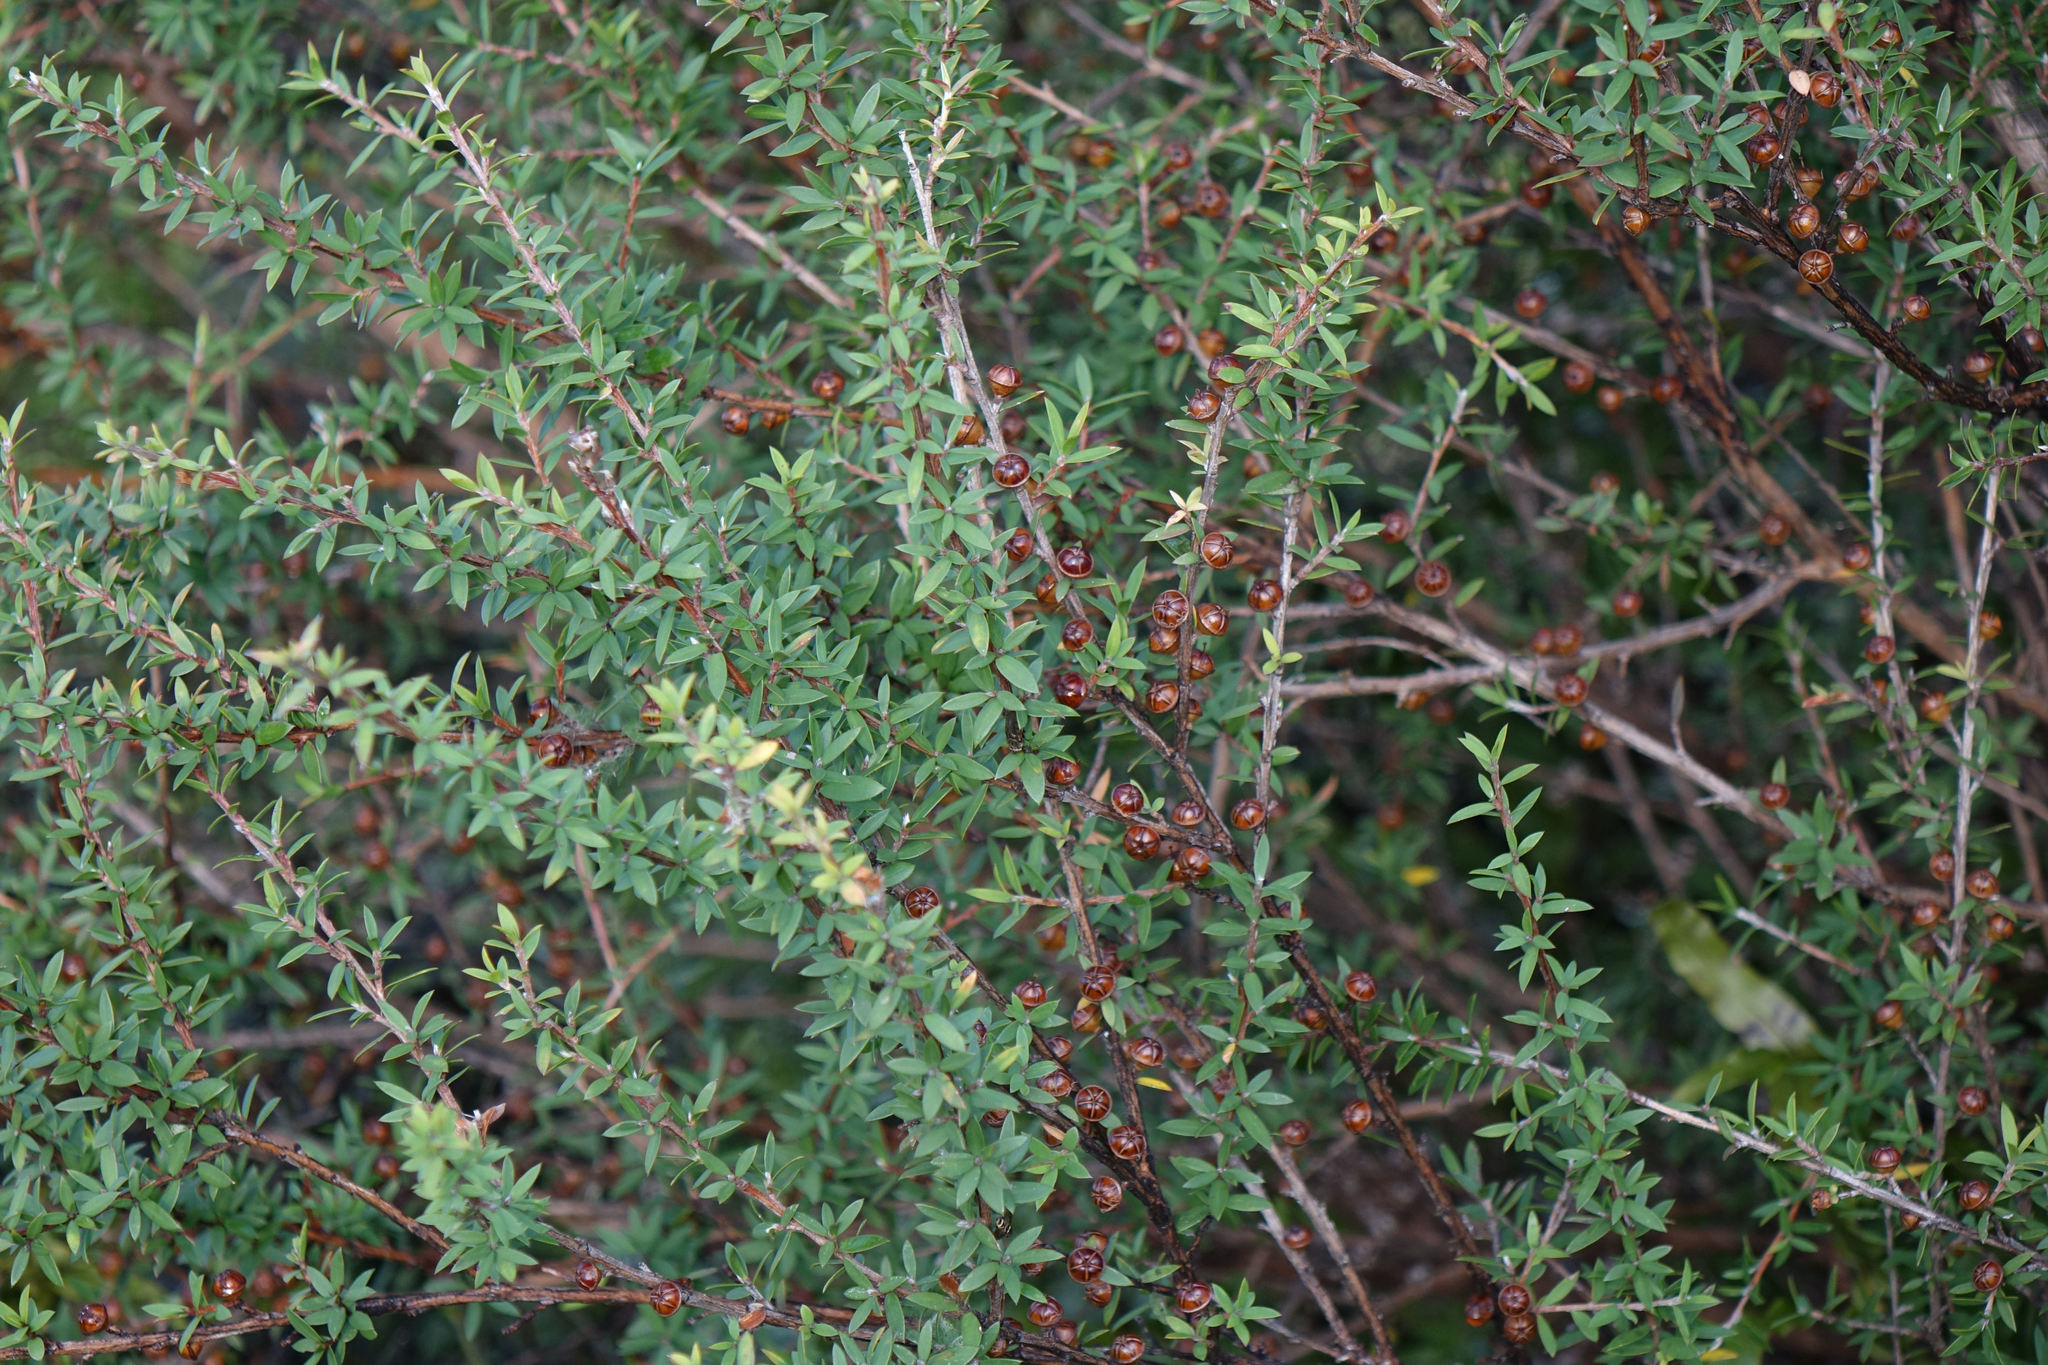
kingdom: Plantae
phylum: Tracheophyta
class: Magnoliopsida
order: Myrtales
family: Myrtaceae
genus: Leptospermum
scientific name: Leptospermum scoparium
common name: Broom tea-tree
